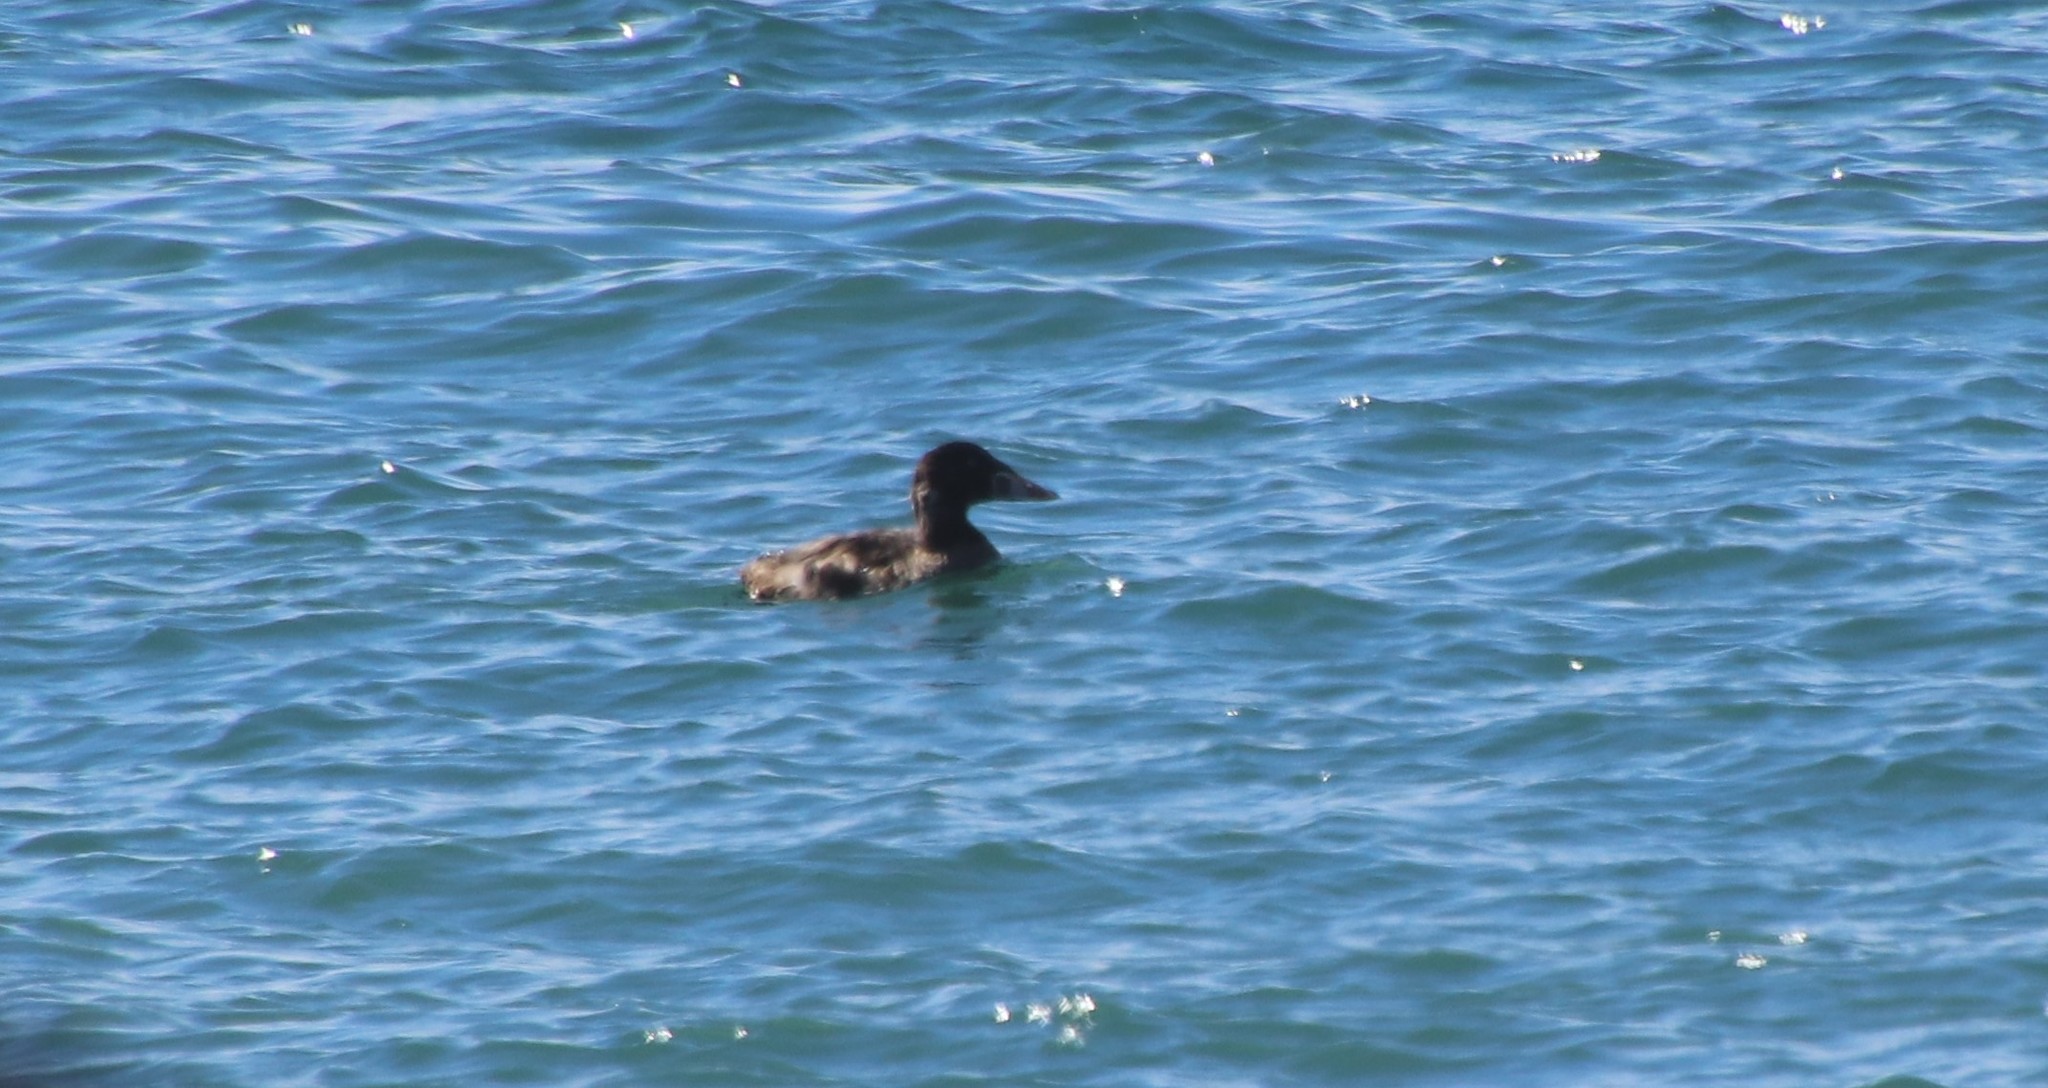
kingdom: Animalia
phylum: Chordata
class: Aves
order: Anseriformes
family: Anatidae
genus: Melanitta
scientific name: Melanitta perspicillata
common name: Surf scoter
